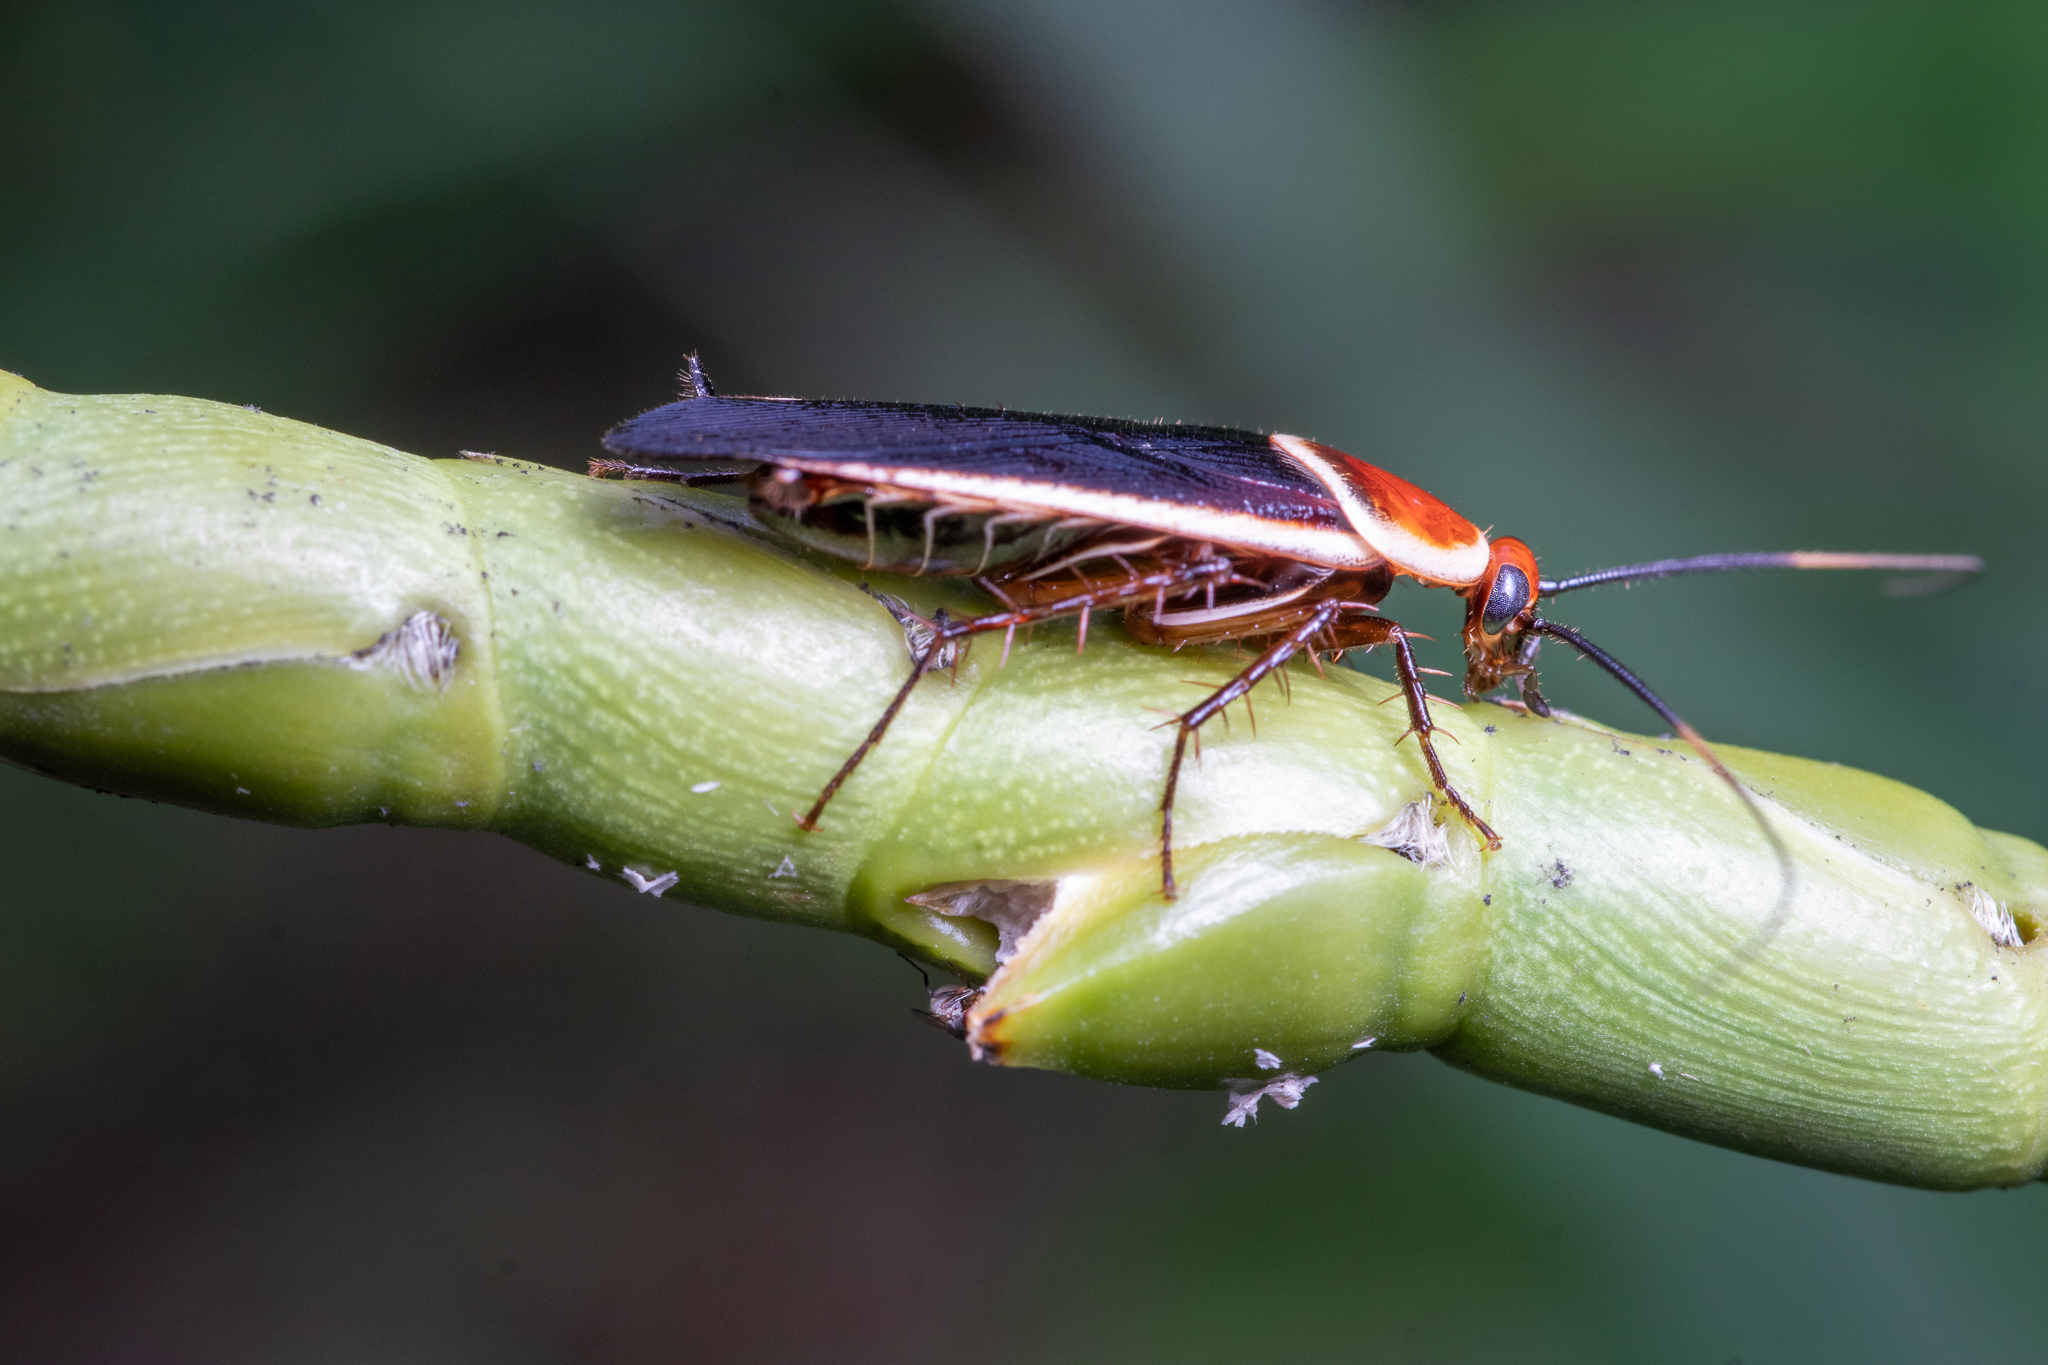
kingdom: Animalia
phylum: Arthropoda
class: Insecta
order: Blattodea
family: Ectobiidae
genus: Pseudomops
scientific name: Pseudomops septentrionalis
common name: Pale-bordered field cockroach
